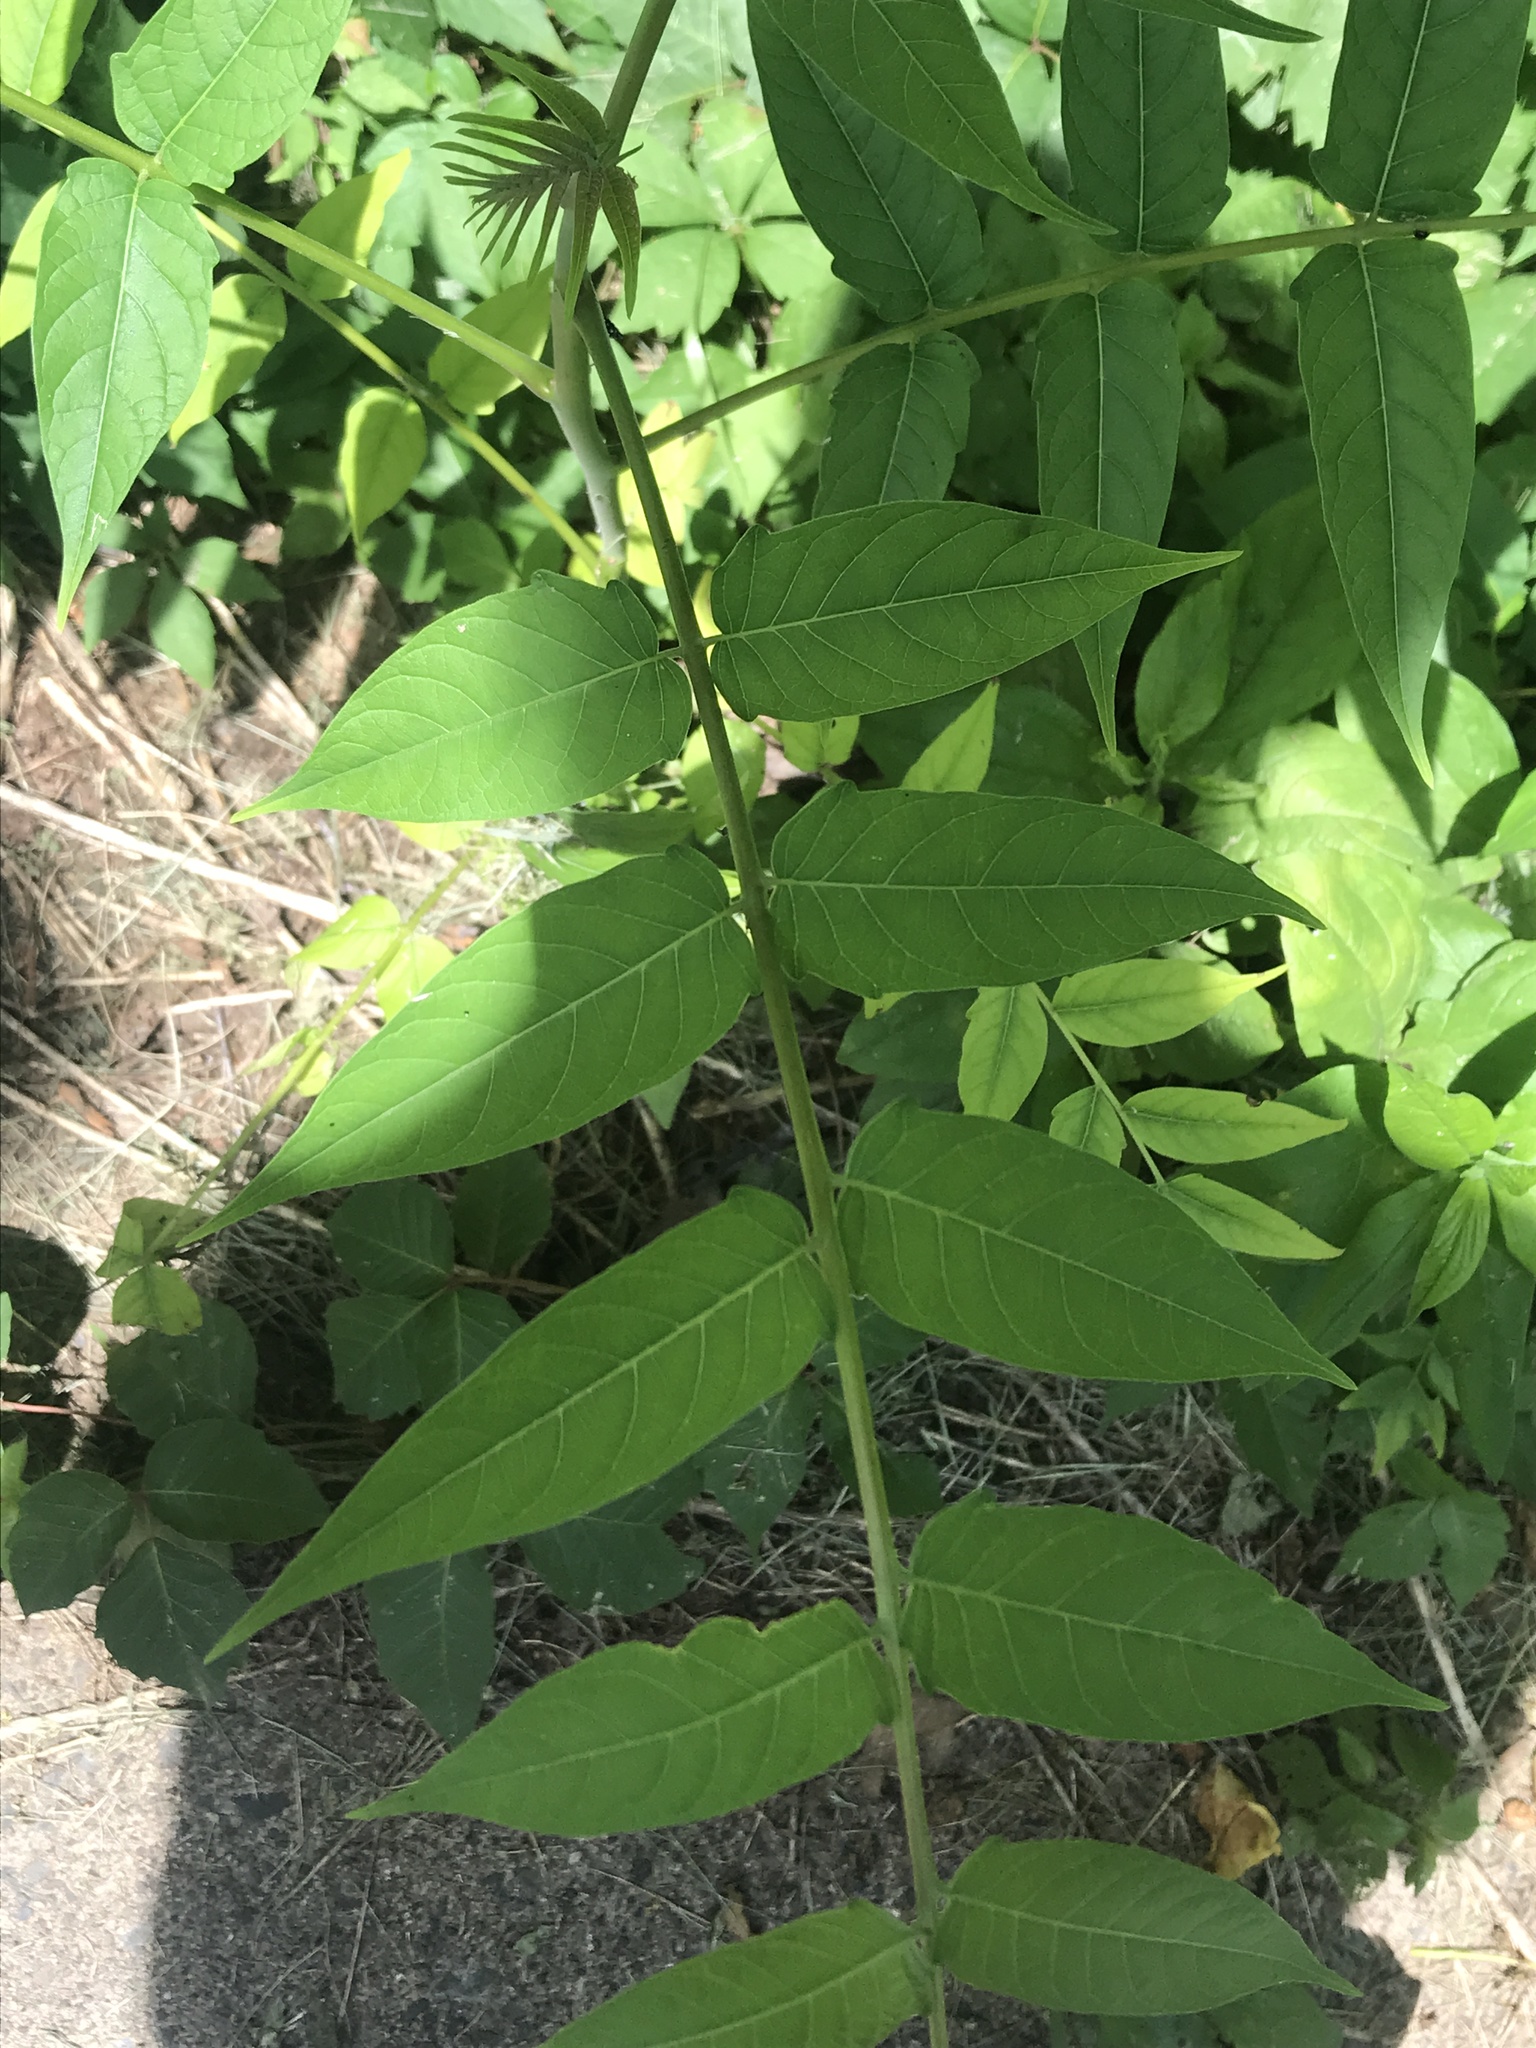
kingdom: Plantae
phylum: Tracheophyta
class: Magnoliopsida
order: Sapindales
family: Simaroubaceae
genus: Ailanthus
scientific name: Ailanthus altissima
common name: Tree-of-heaven
